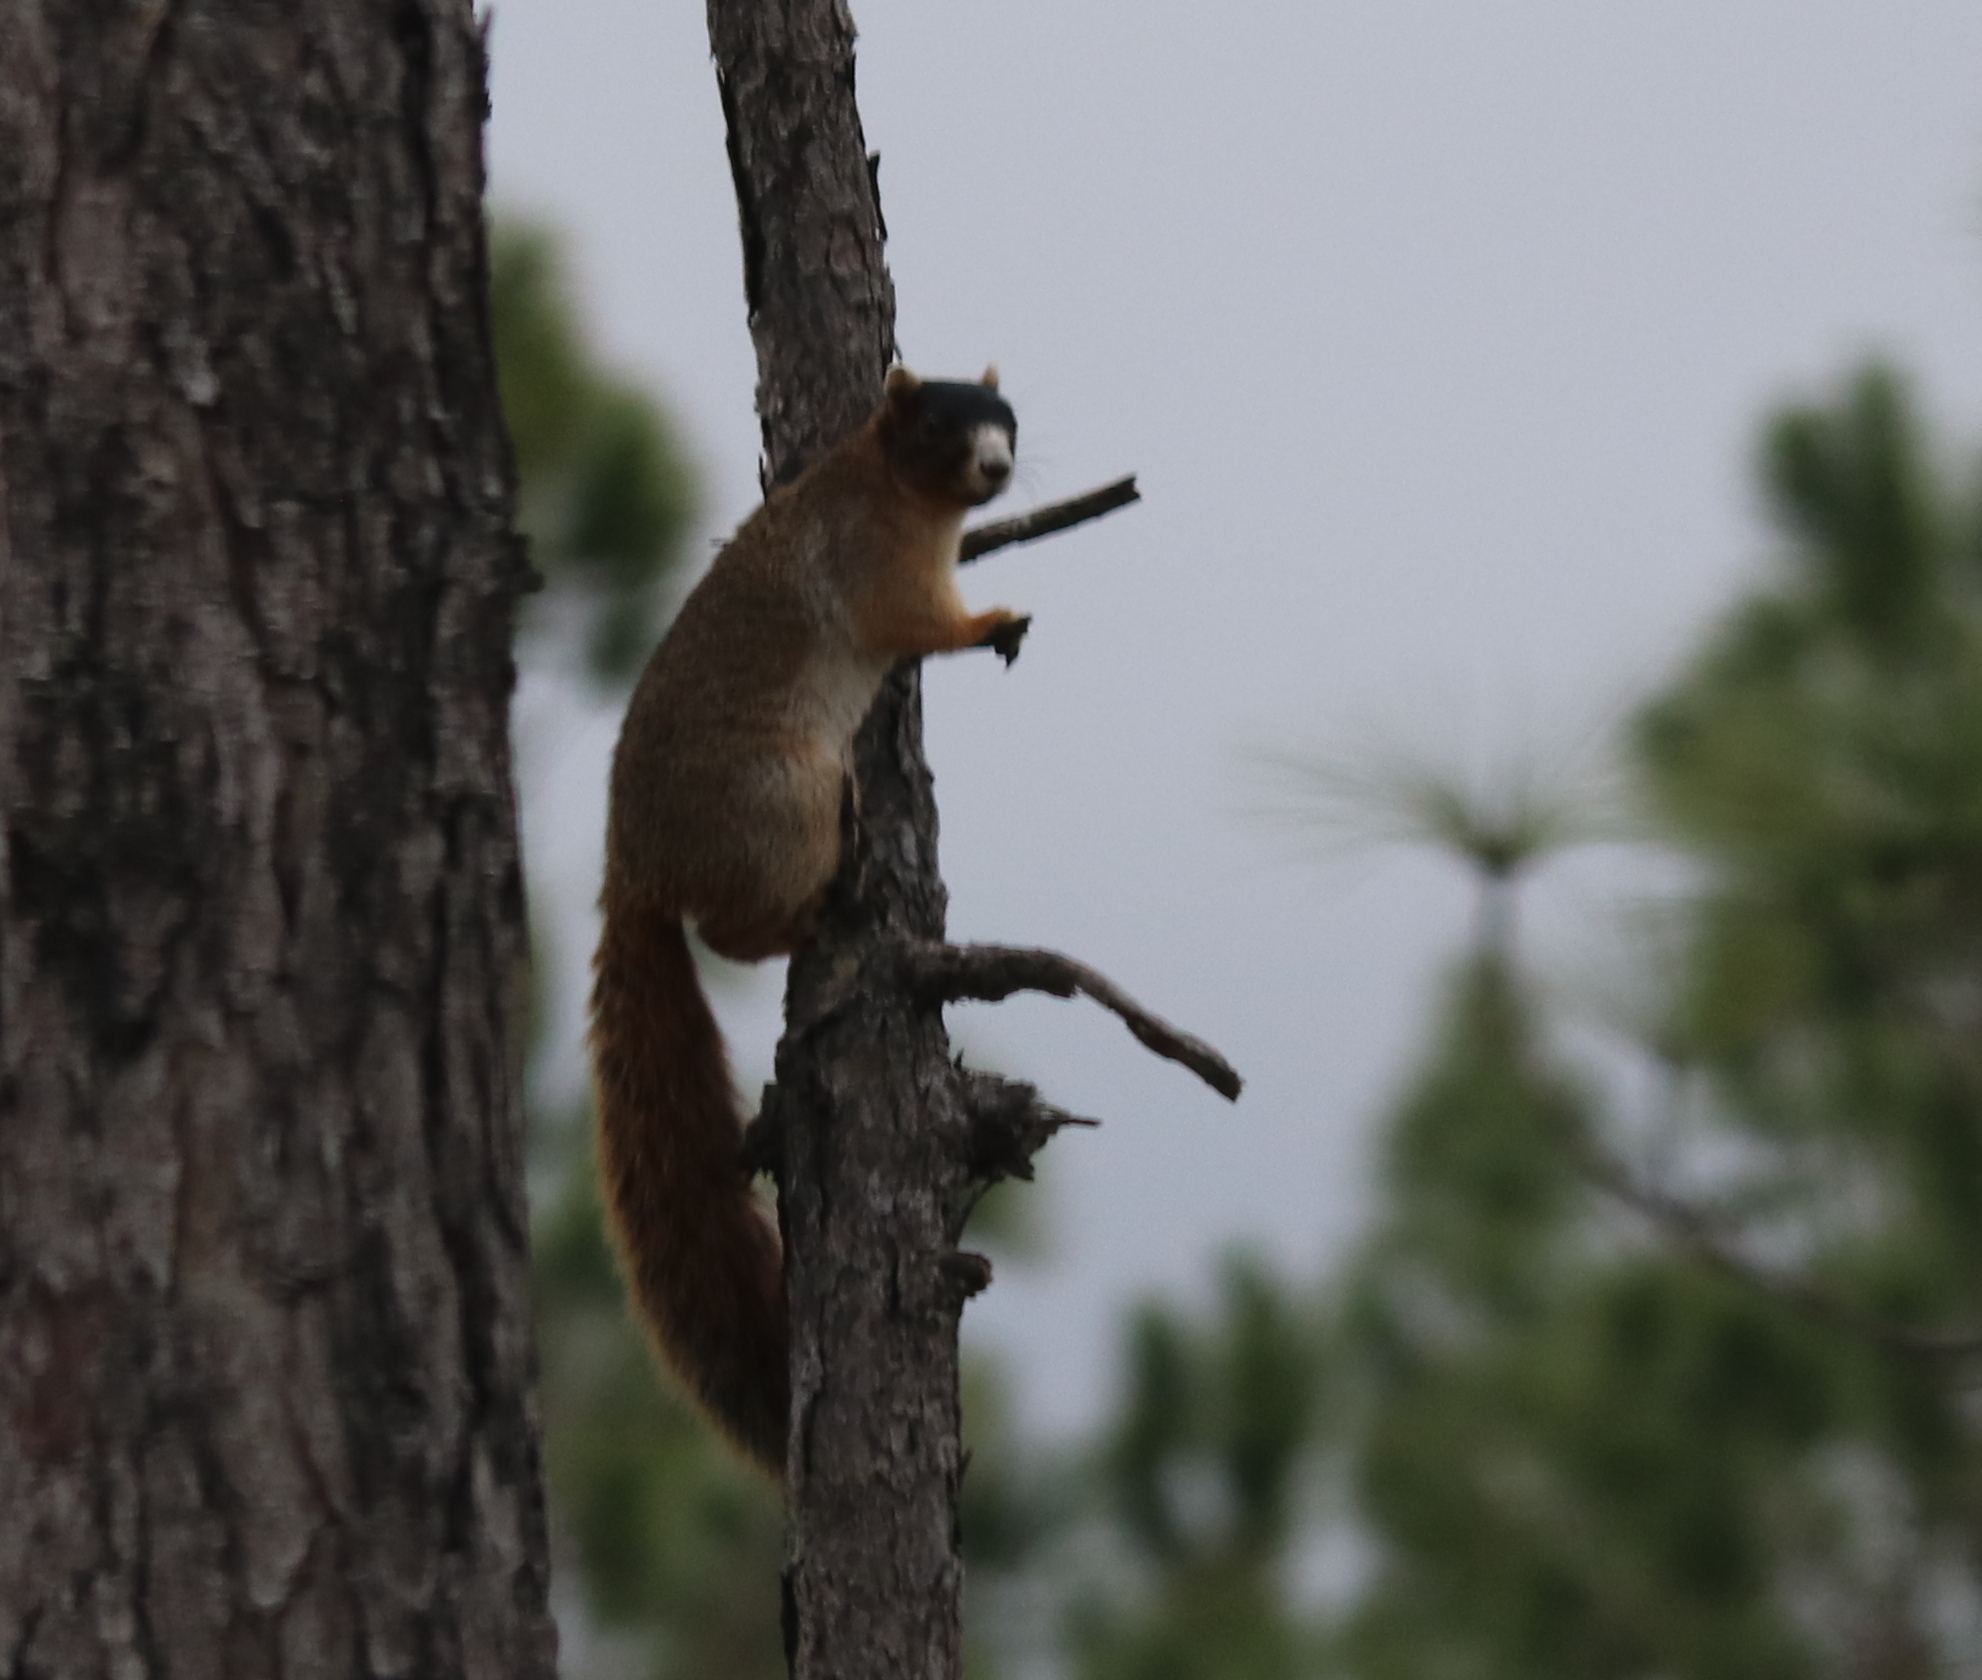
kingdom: Animalia
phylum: Chordata
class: Mammalia
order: Rodentia
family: Sciuridae
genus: Sciurus
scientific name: Sciurus niger
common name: Fox squirrel
